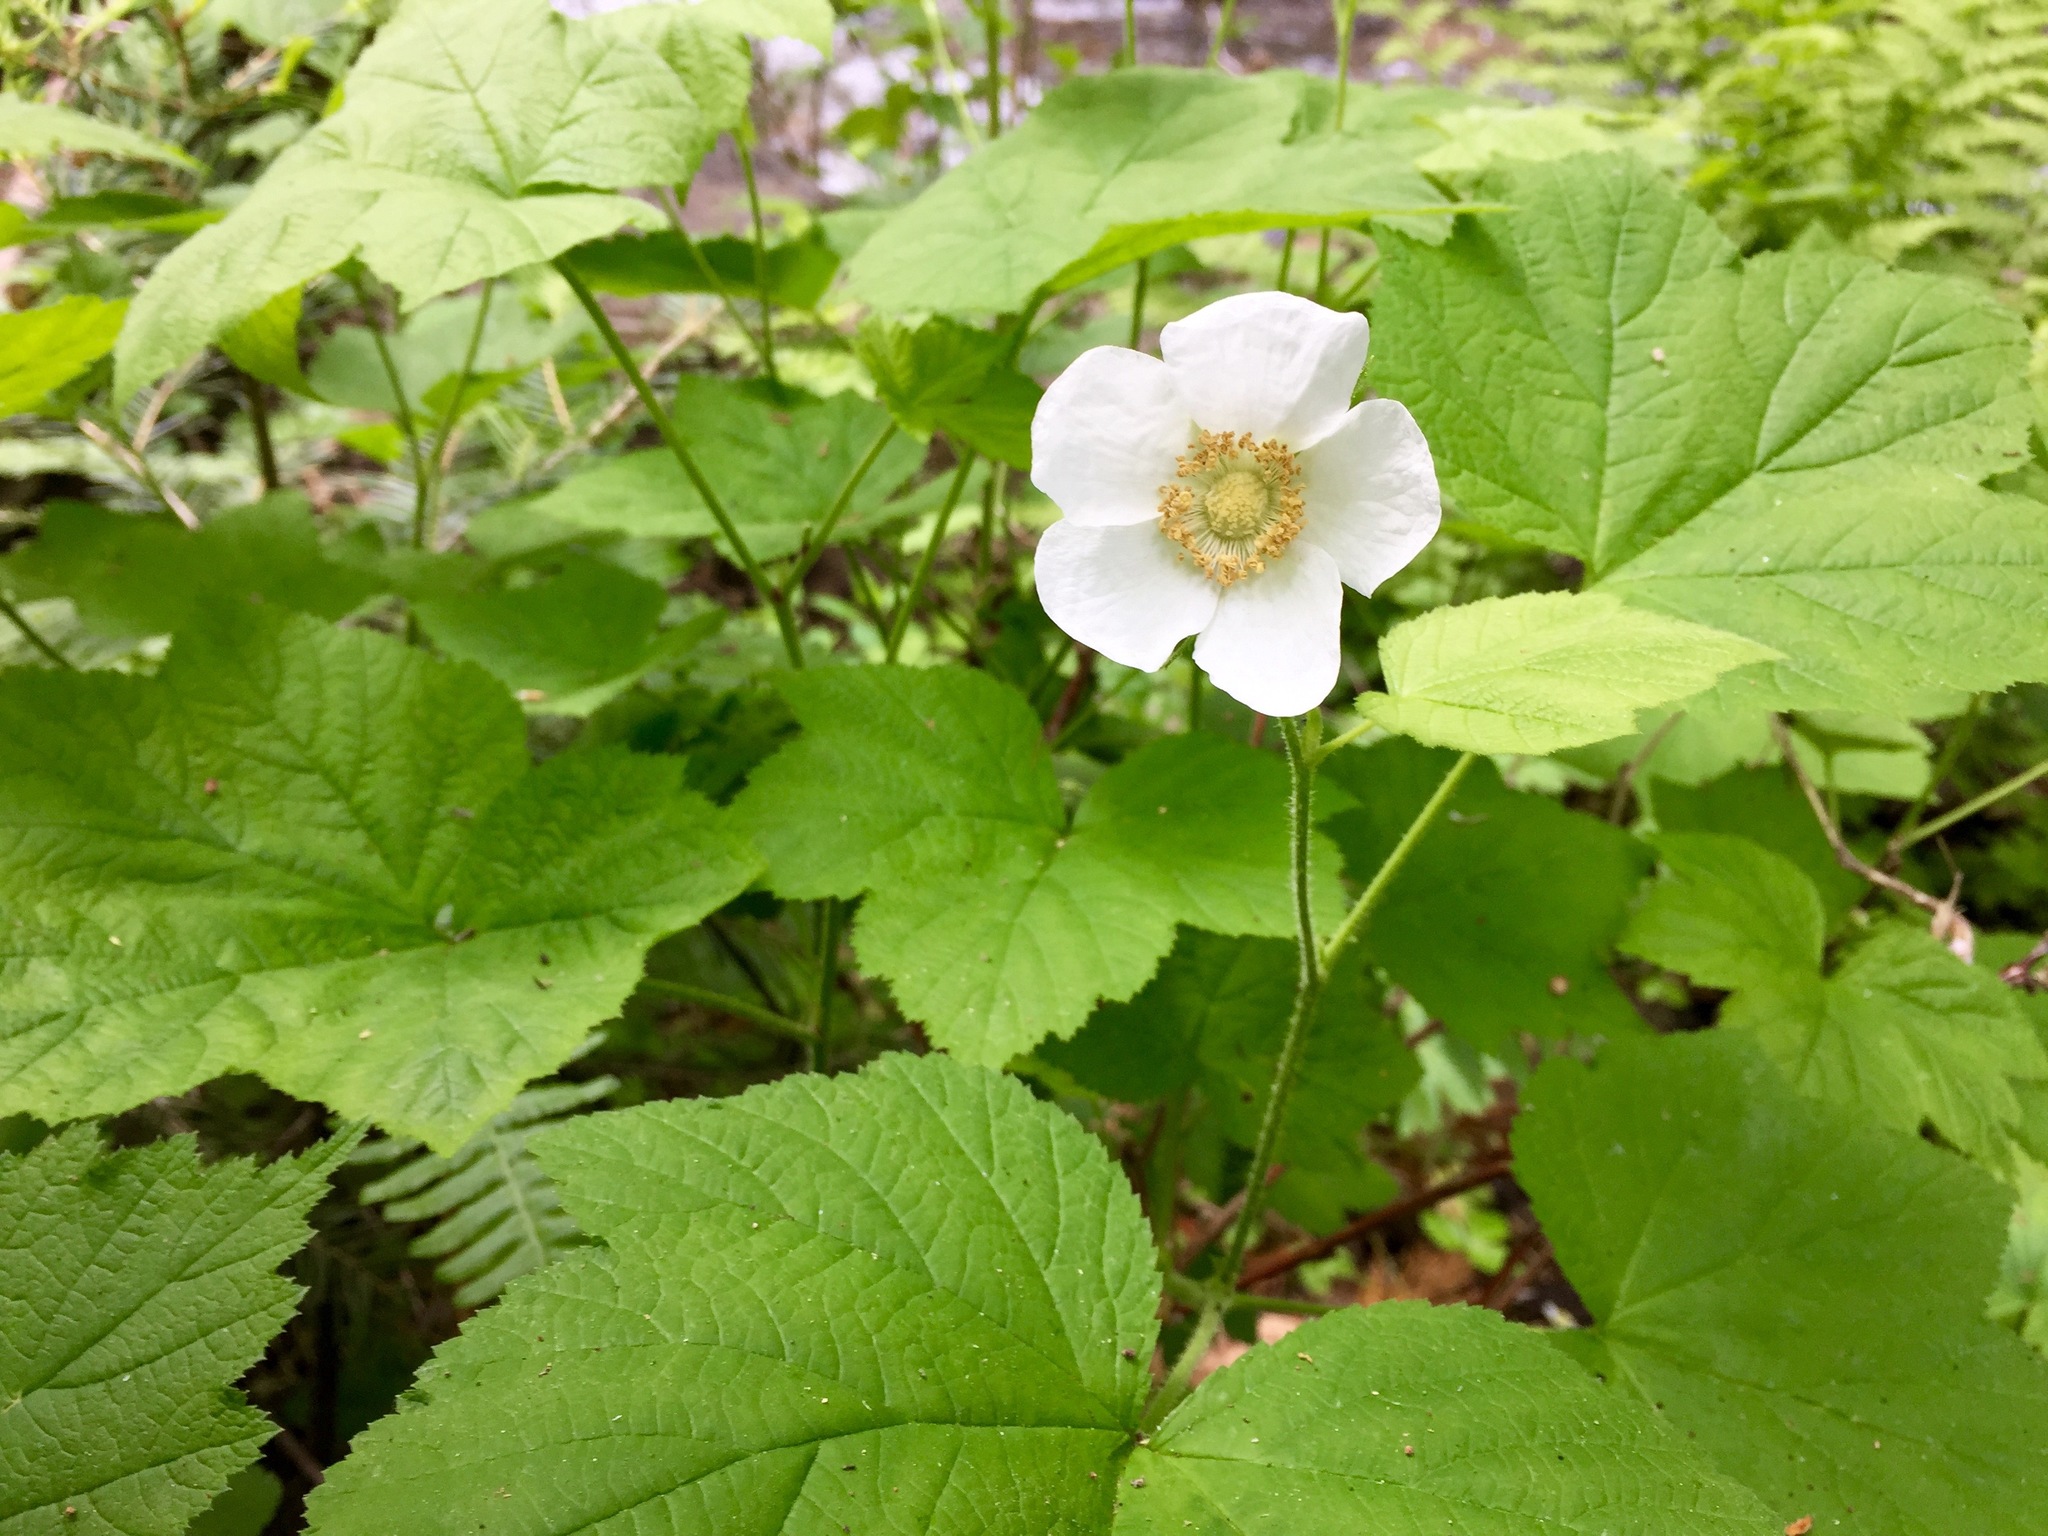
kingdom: Plantae
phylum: Tracheophyta
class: Magnoliopsida
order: Rosales
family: Rosaceae
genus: Rubus
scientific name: Rubus parviflorus
